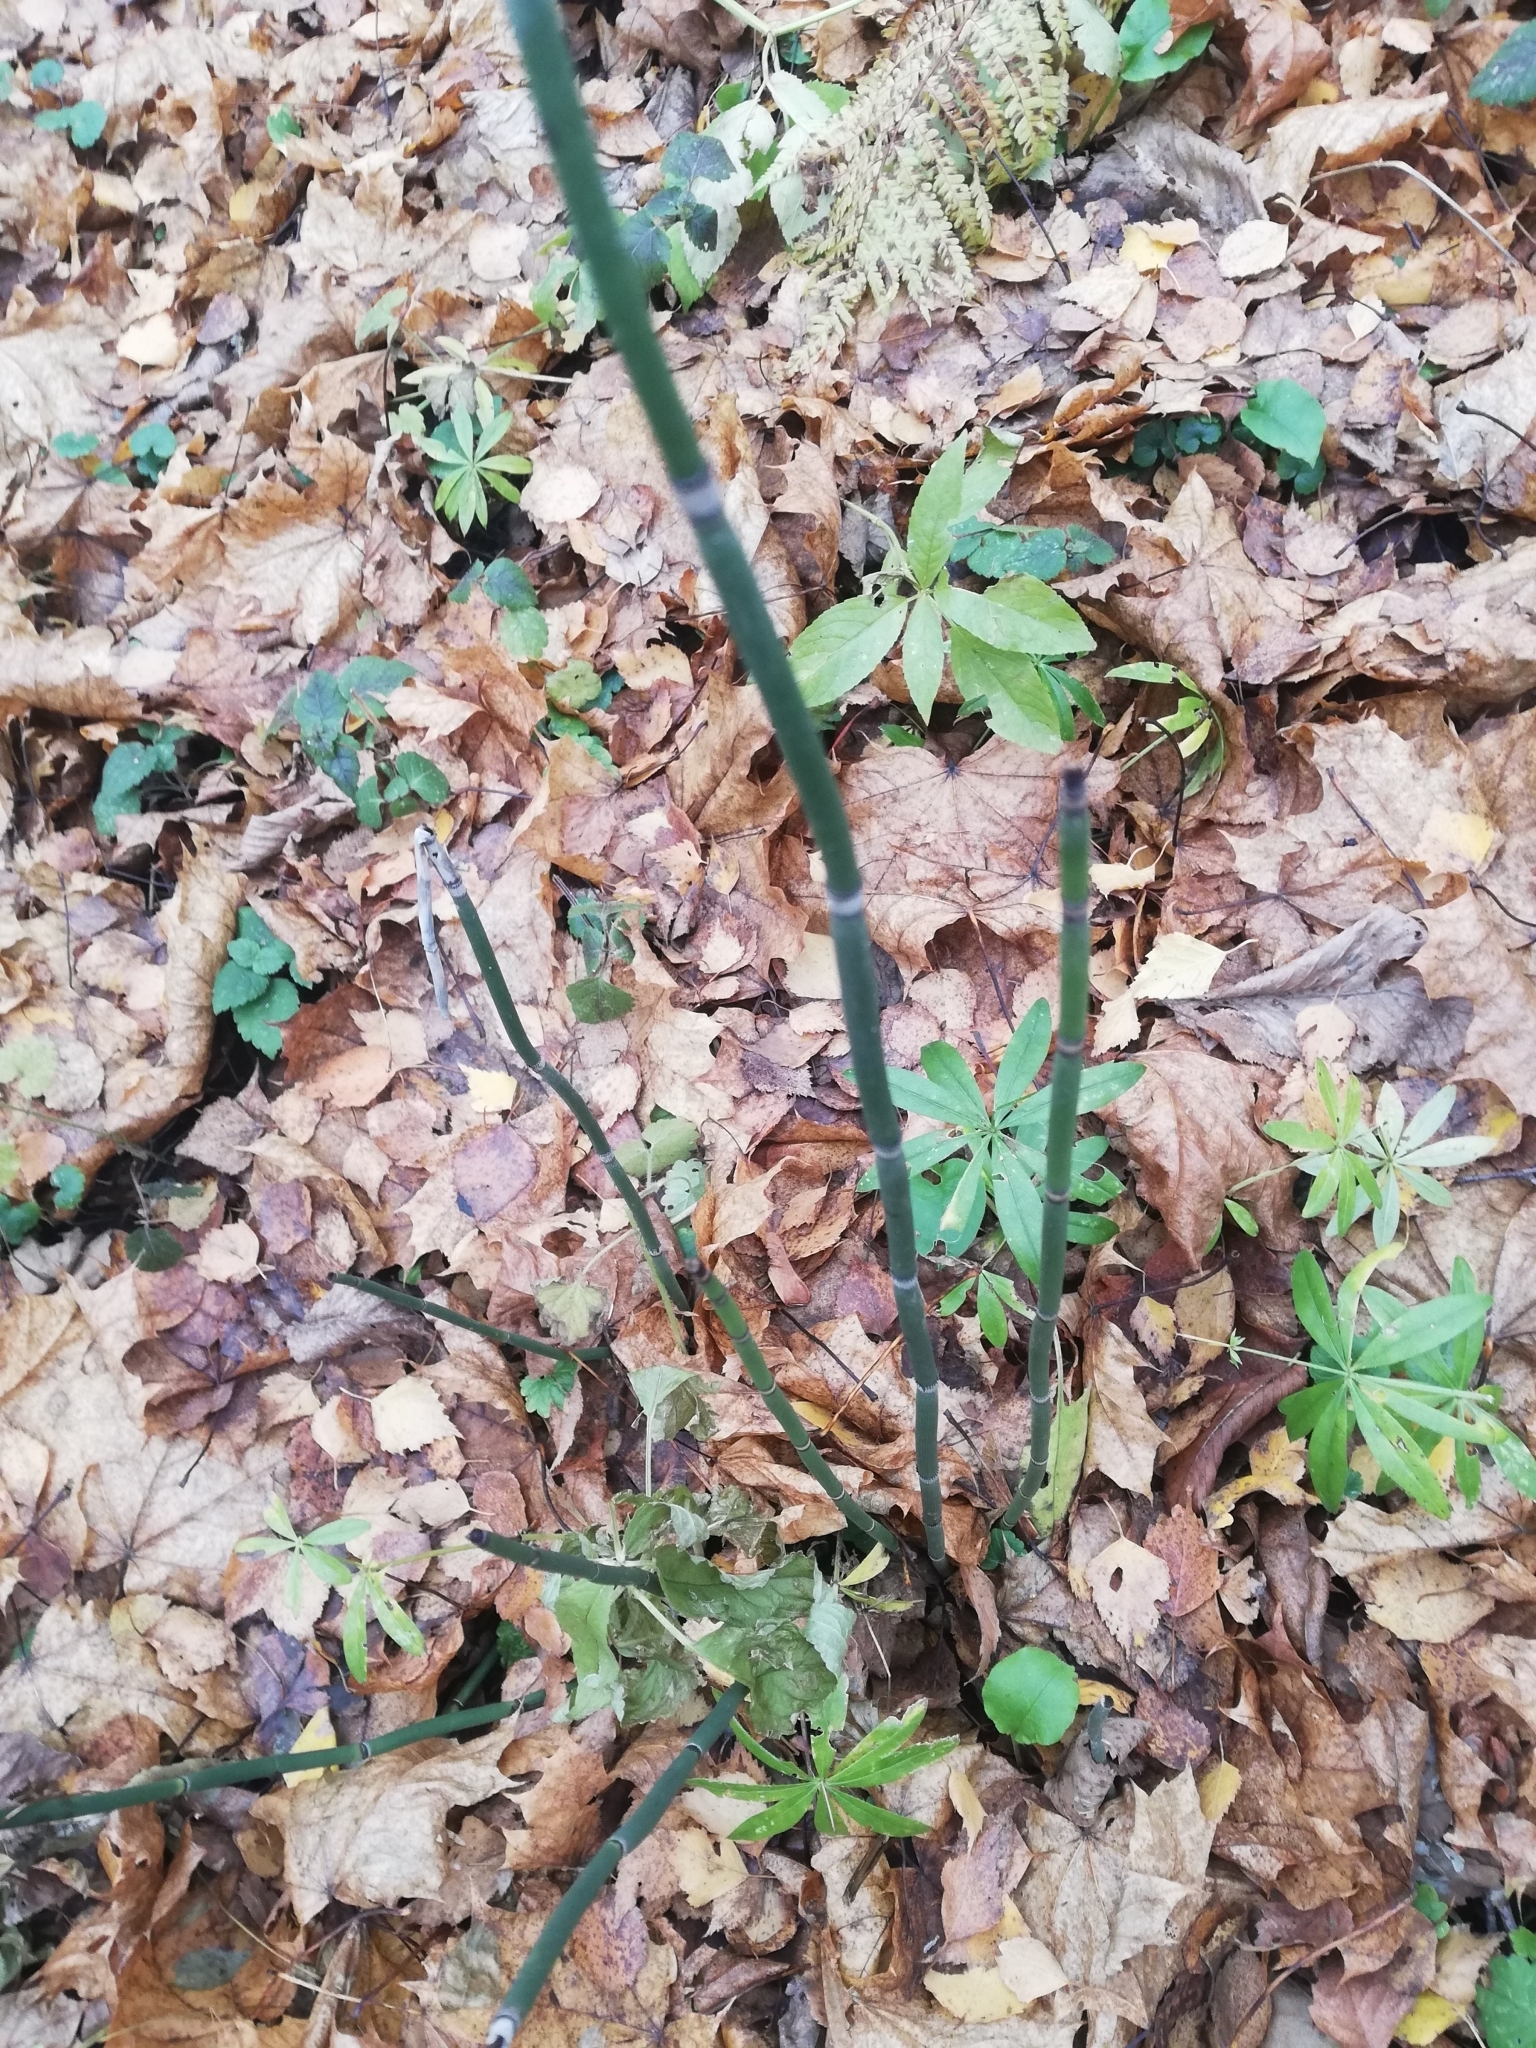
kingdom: Plantae
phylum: Tracheophyta
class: Polypodiopsida
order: Equisetales
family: Equisetaceae
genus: Equisetum
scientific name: Equisetum hyemale
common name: Rough horsetail
